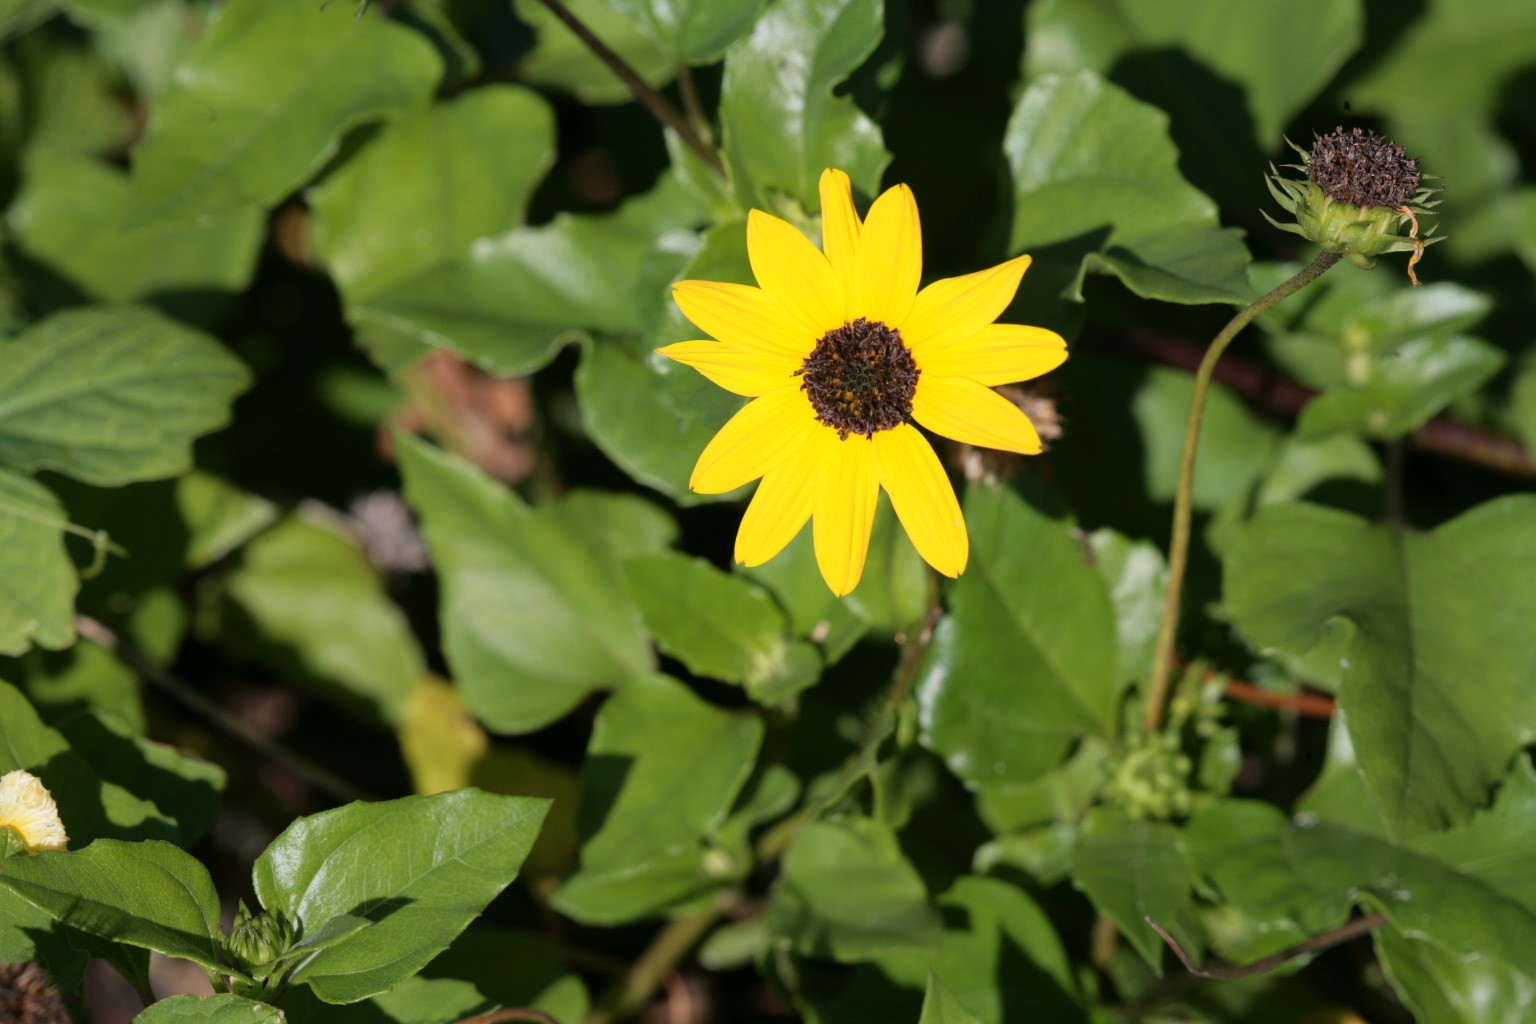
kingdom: Plantae
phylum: Tracheophyta
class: Magnoliopsida
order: Asterales
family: Asteraceae
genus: Helianthus
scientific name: Helianthus debilis
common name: Weak sunflower
